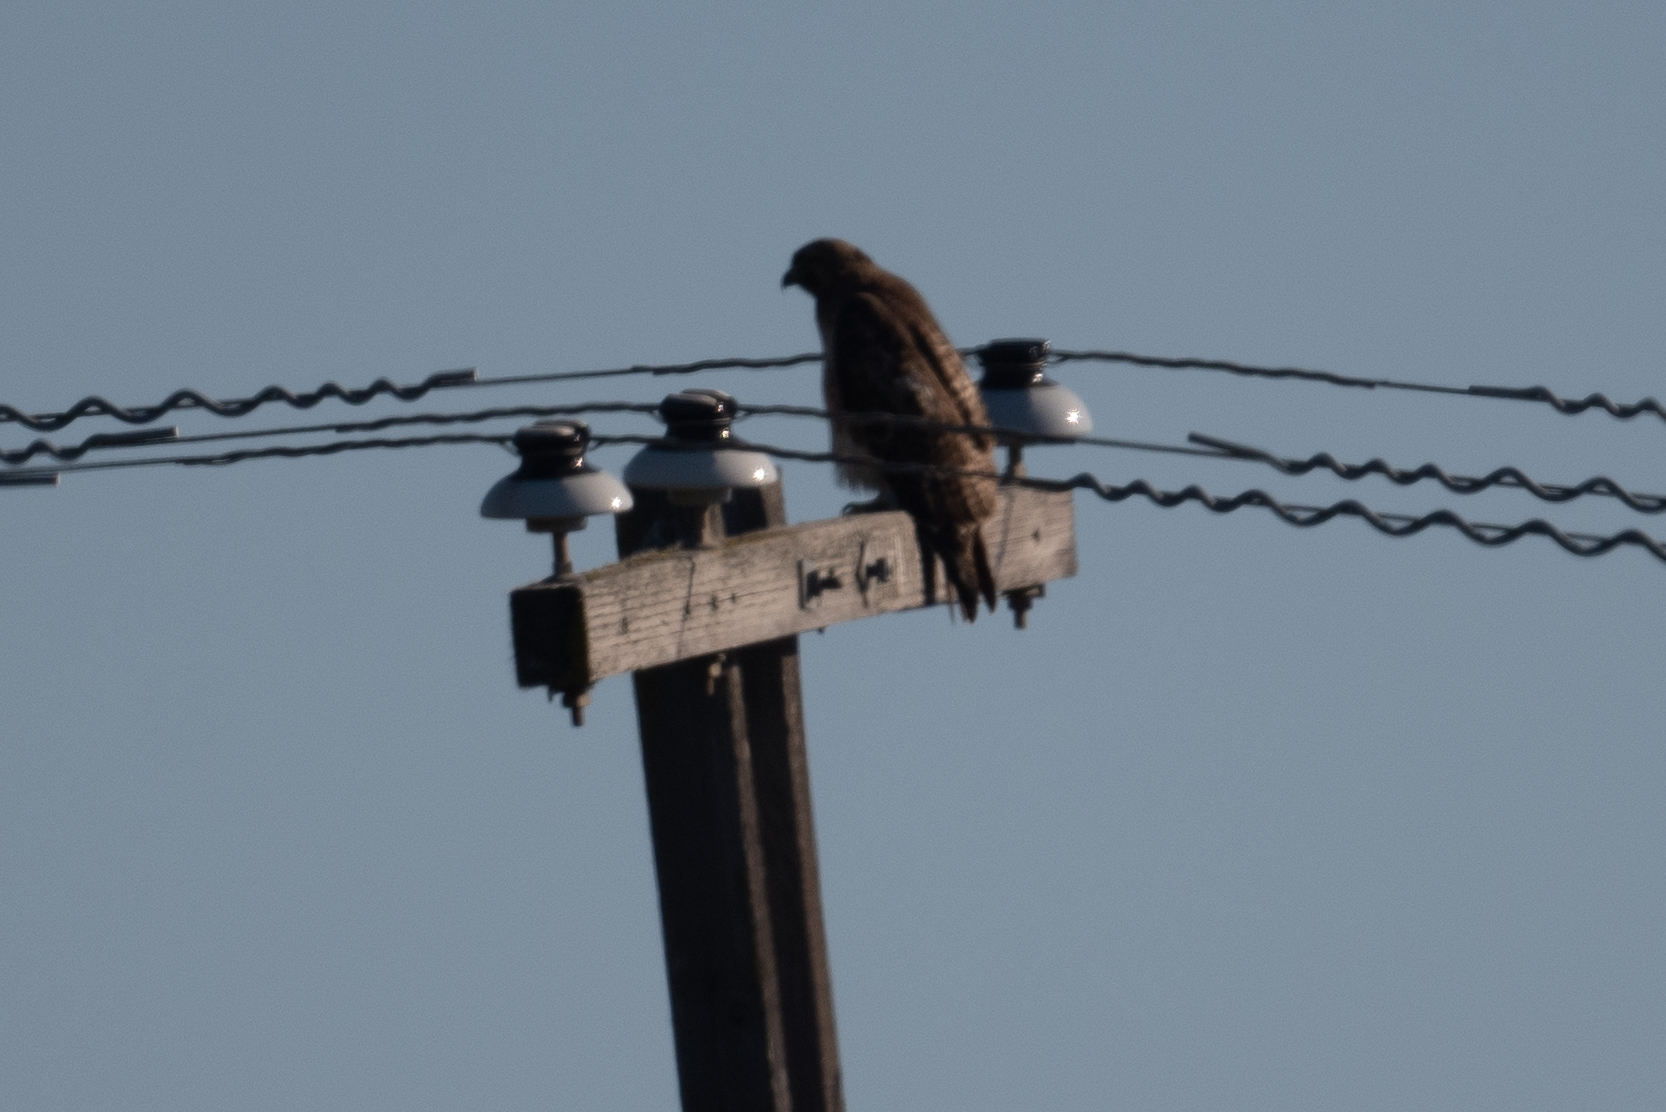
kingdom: Animalia
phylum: Chordata
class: Aves
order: Accipitriformes
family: Accipitridae
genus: Buteo
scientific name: Buteo jamaicensis
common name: Red-tailed hawk
